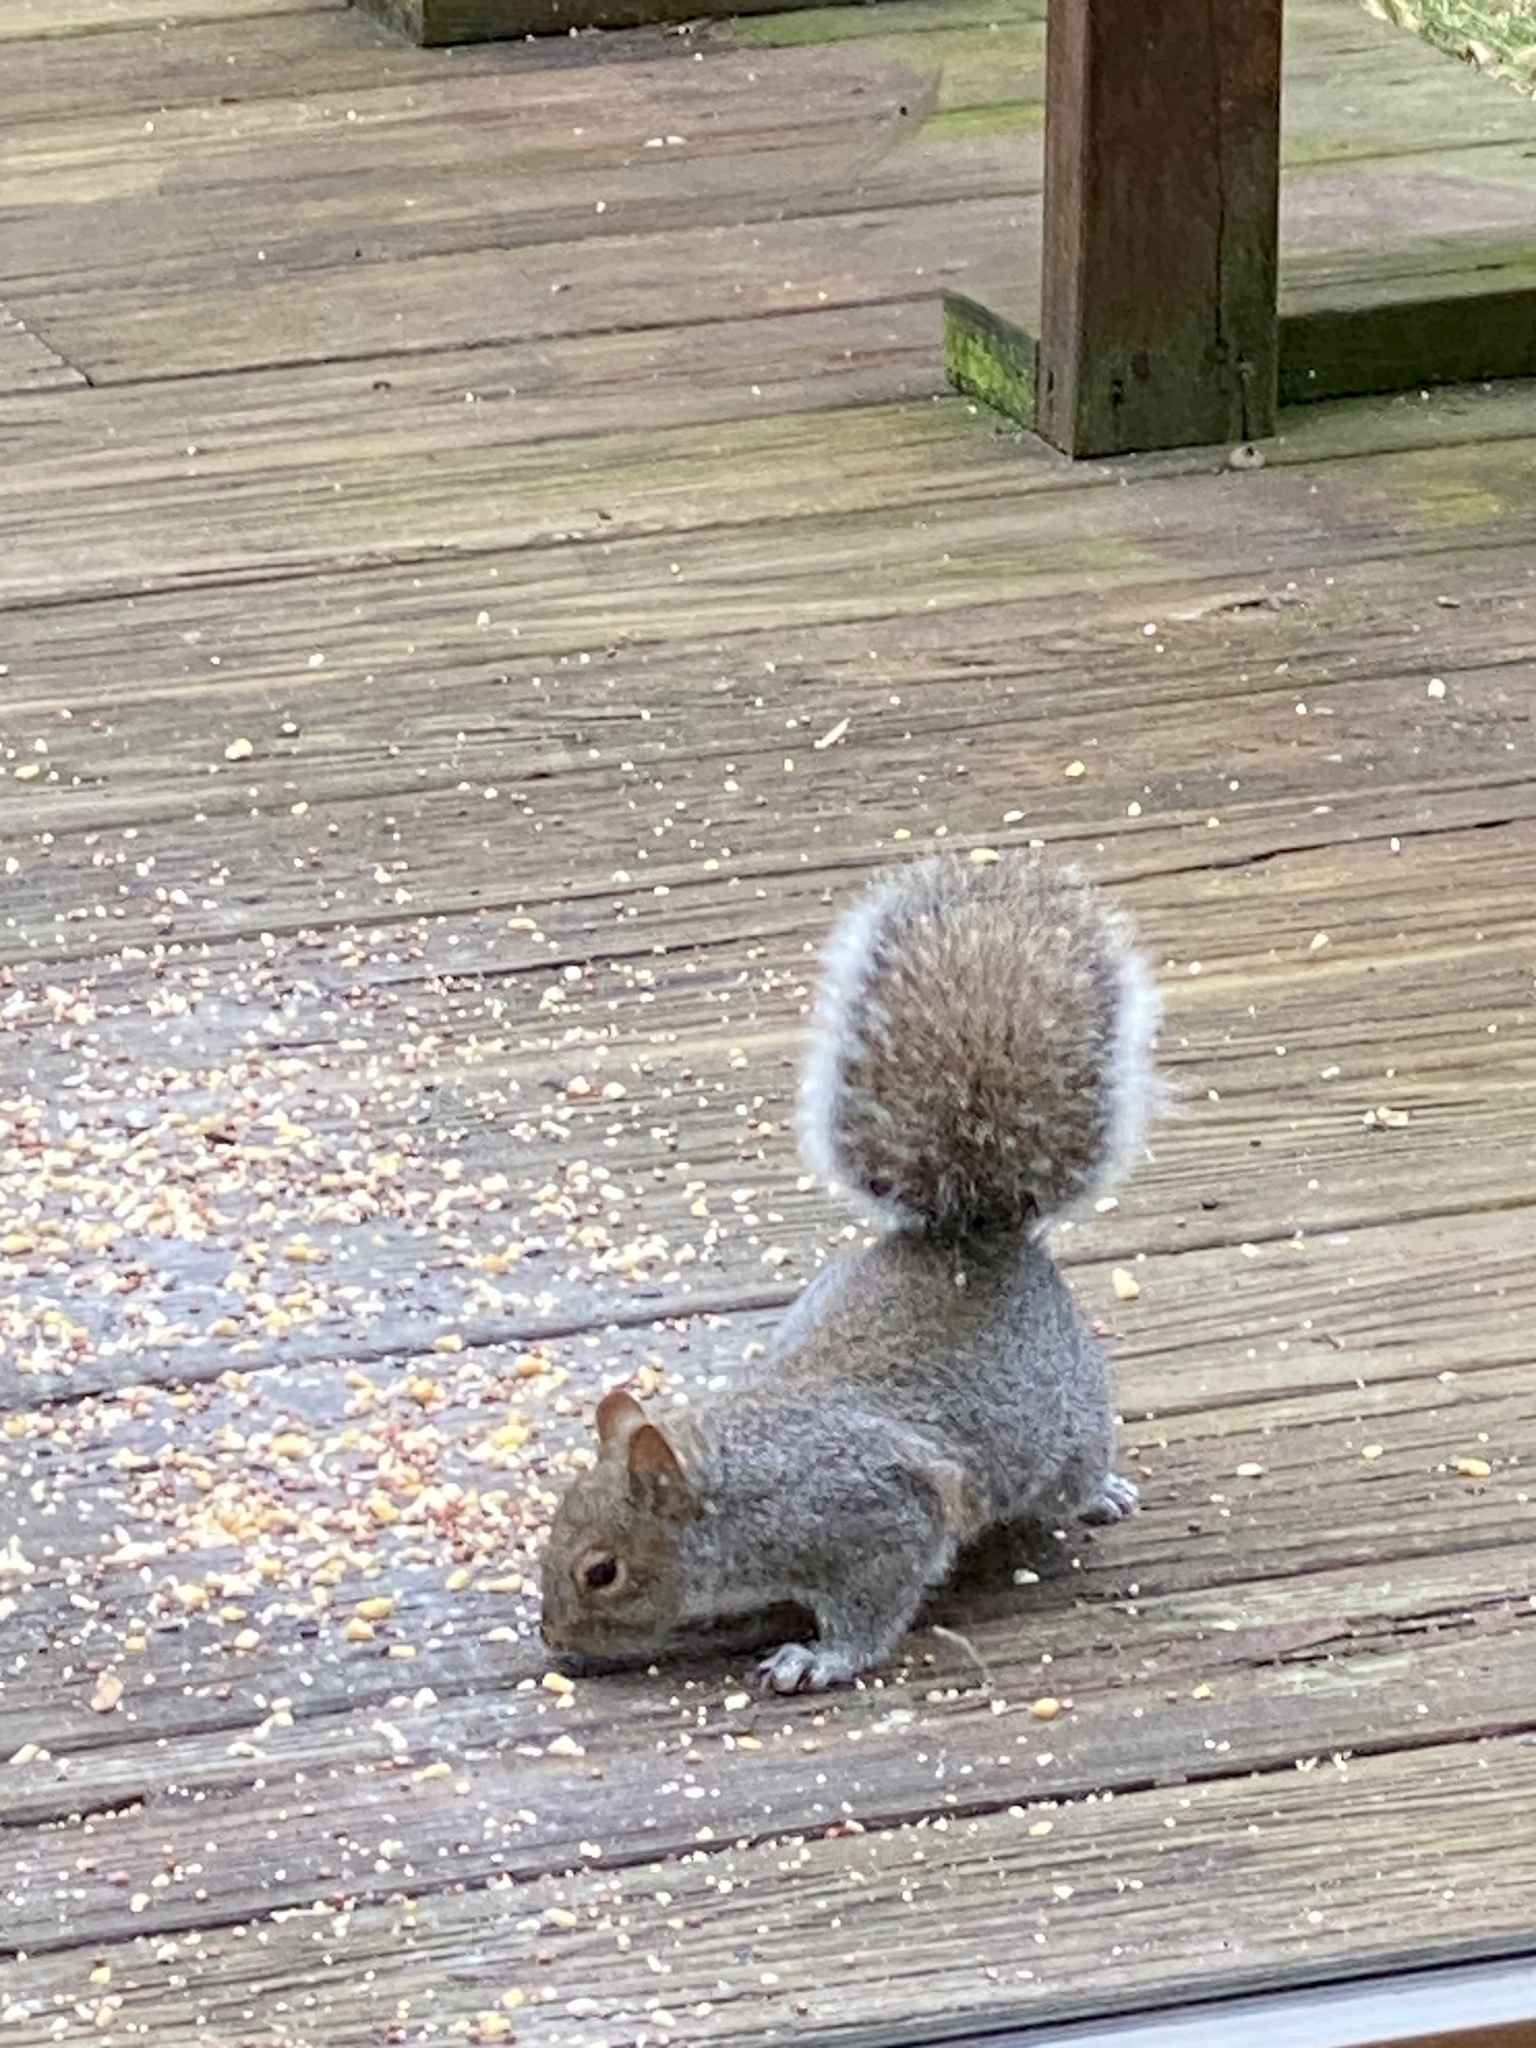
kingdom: Animalia
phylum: Chordata
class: Mammalia
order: Rodentia
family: Sciuridae
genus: Sciurus
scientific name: Sciurus carolinensis
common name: Eastern gray squirrel
